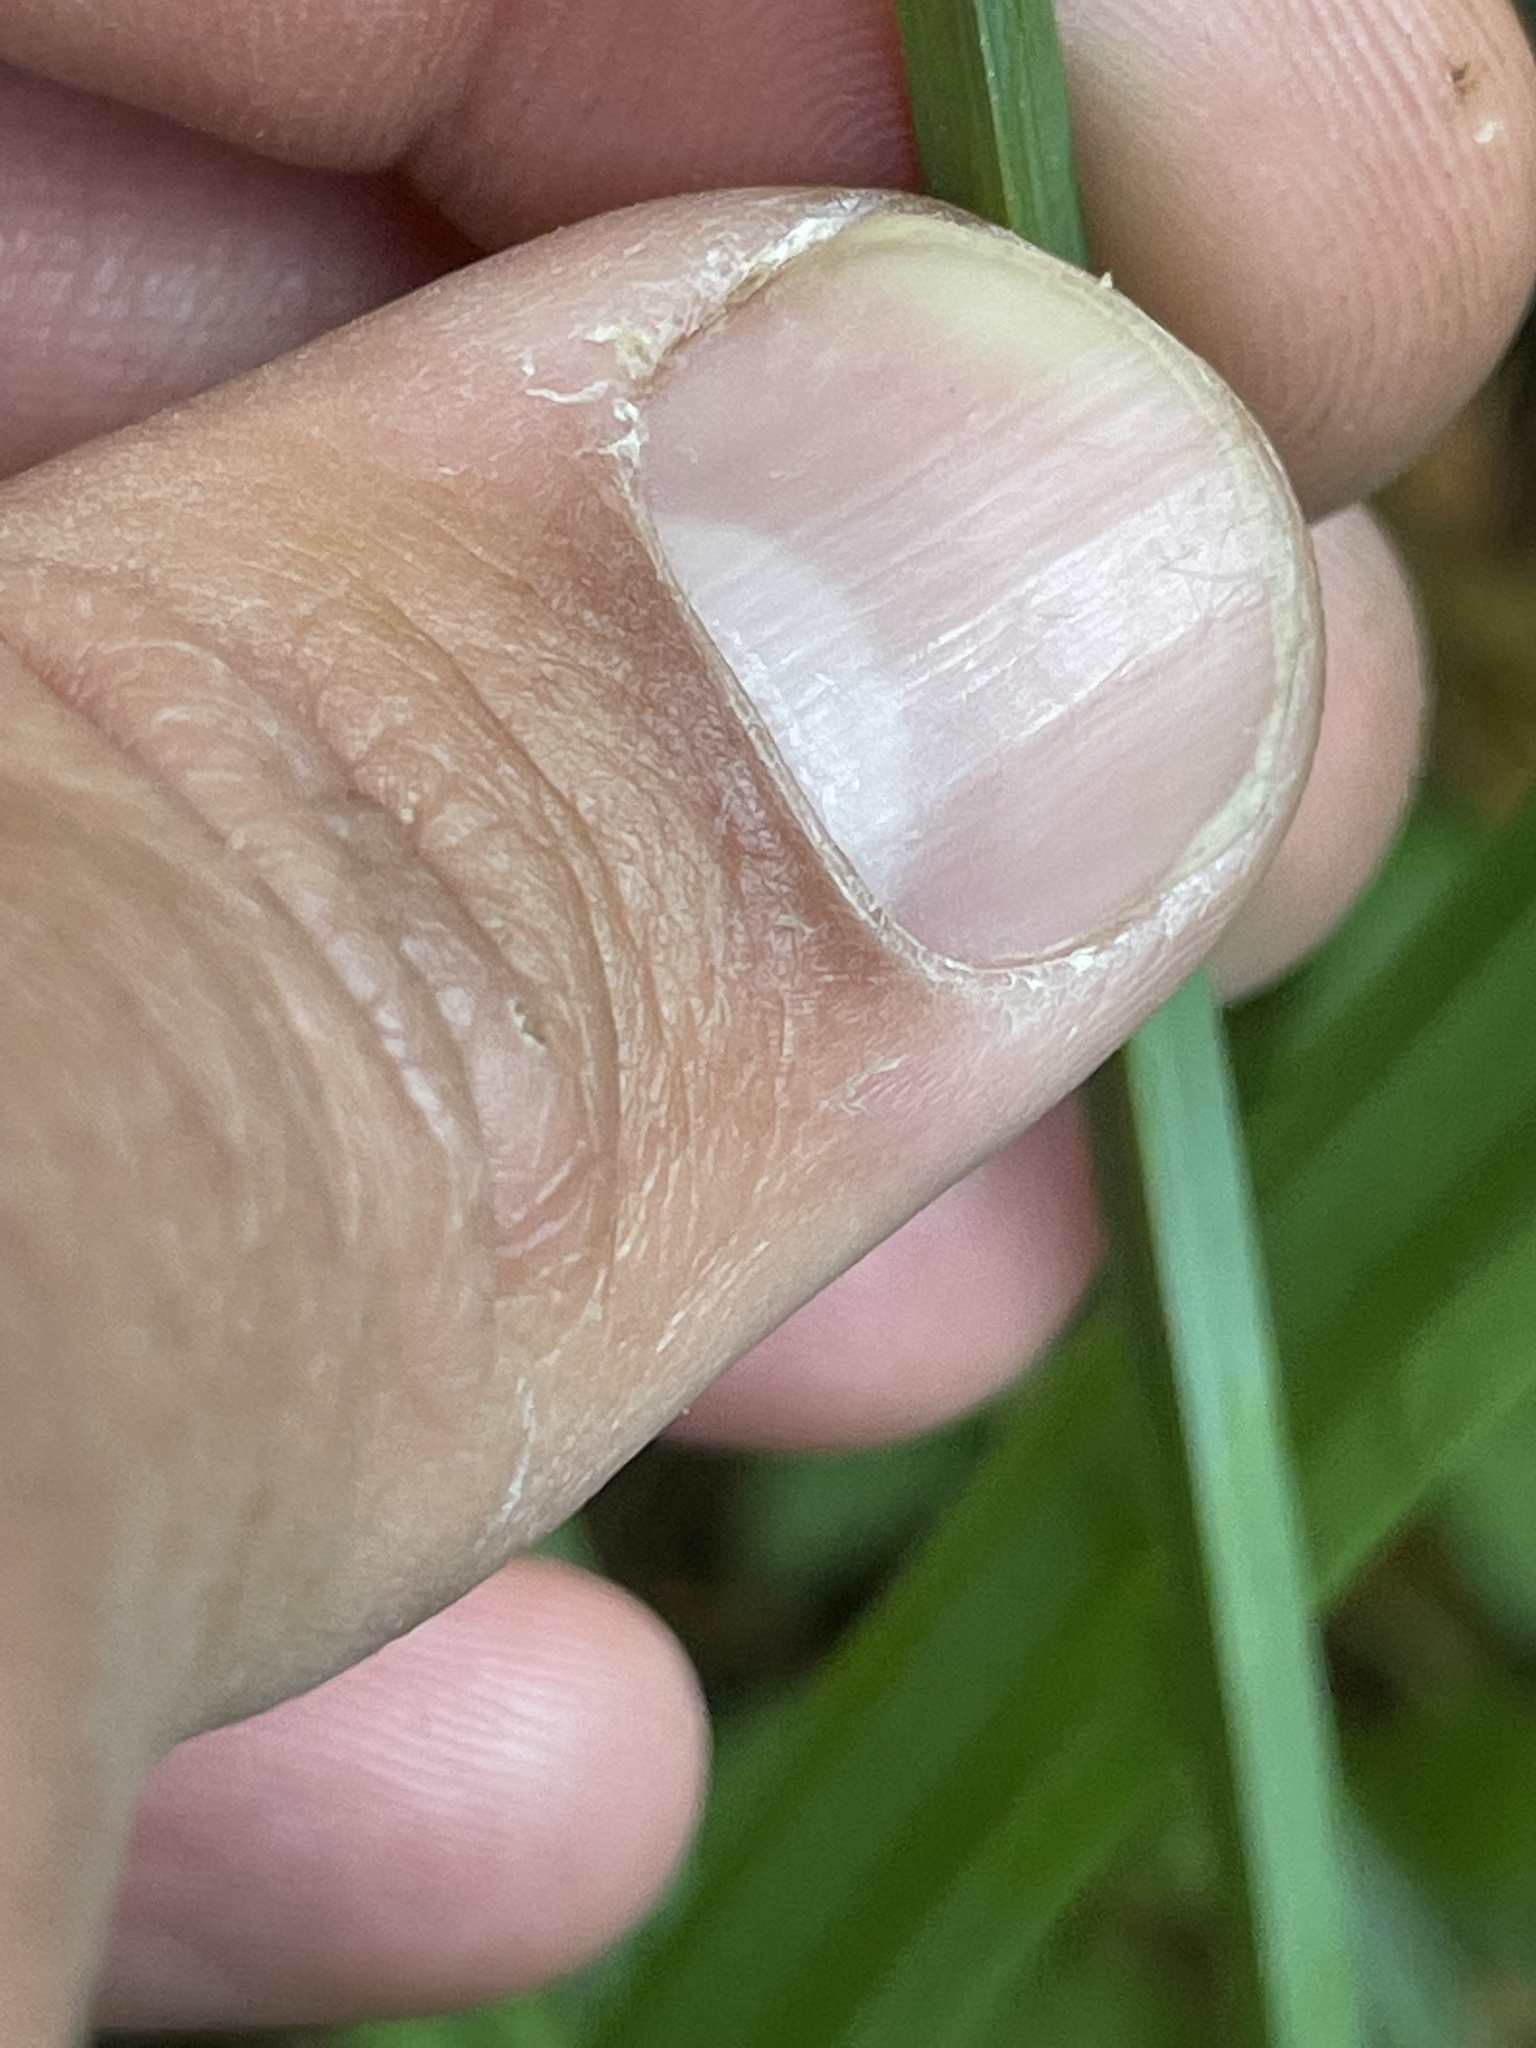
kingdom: Plantae
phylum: Tracheophyta
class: Liliopsida
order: Poales
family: Cyperaceae
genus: Carex
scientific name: Carex amplifolia
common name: Ample-leaved sedge
